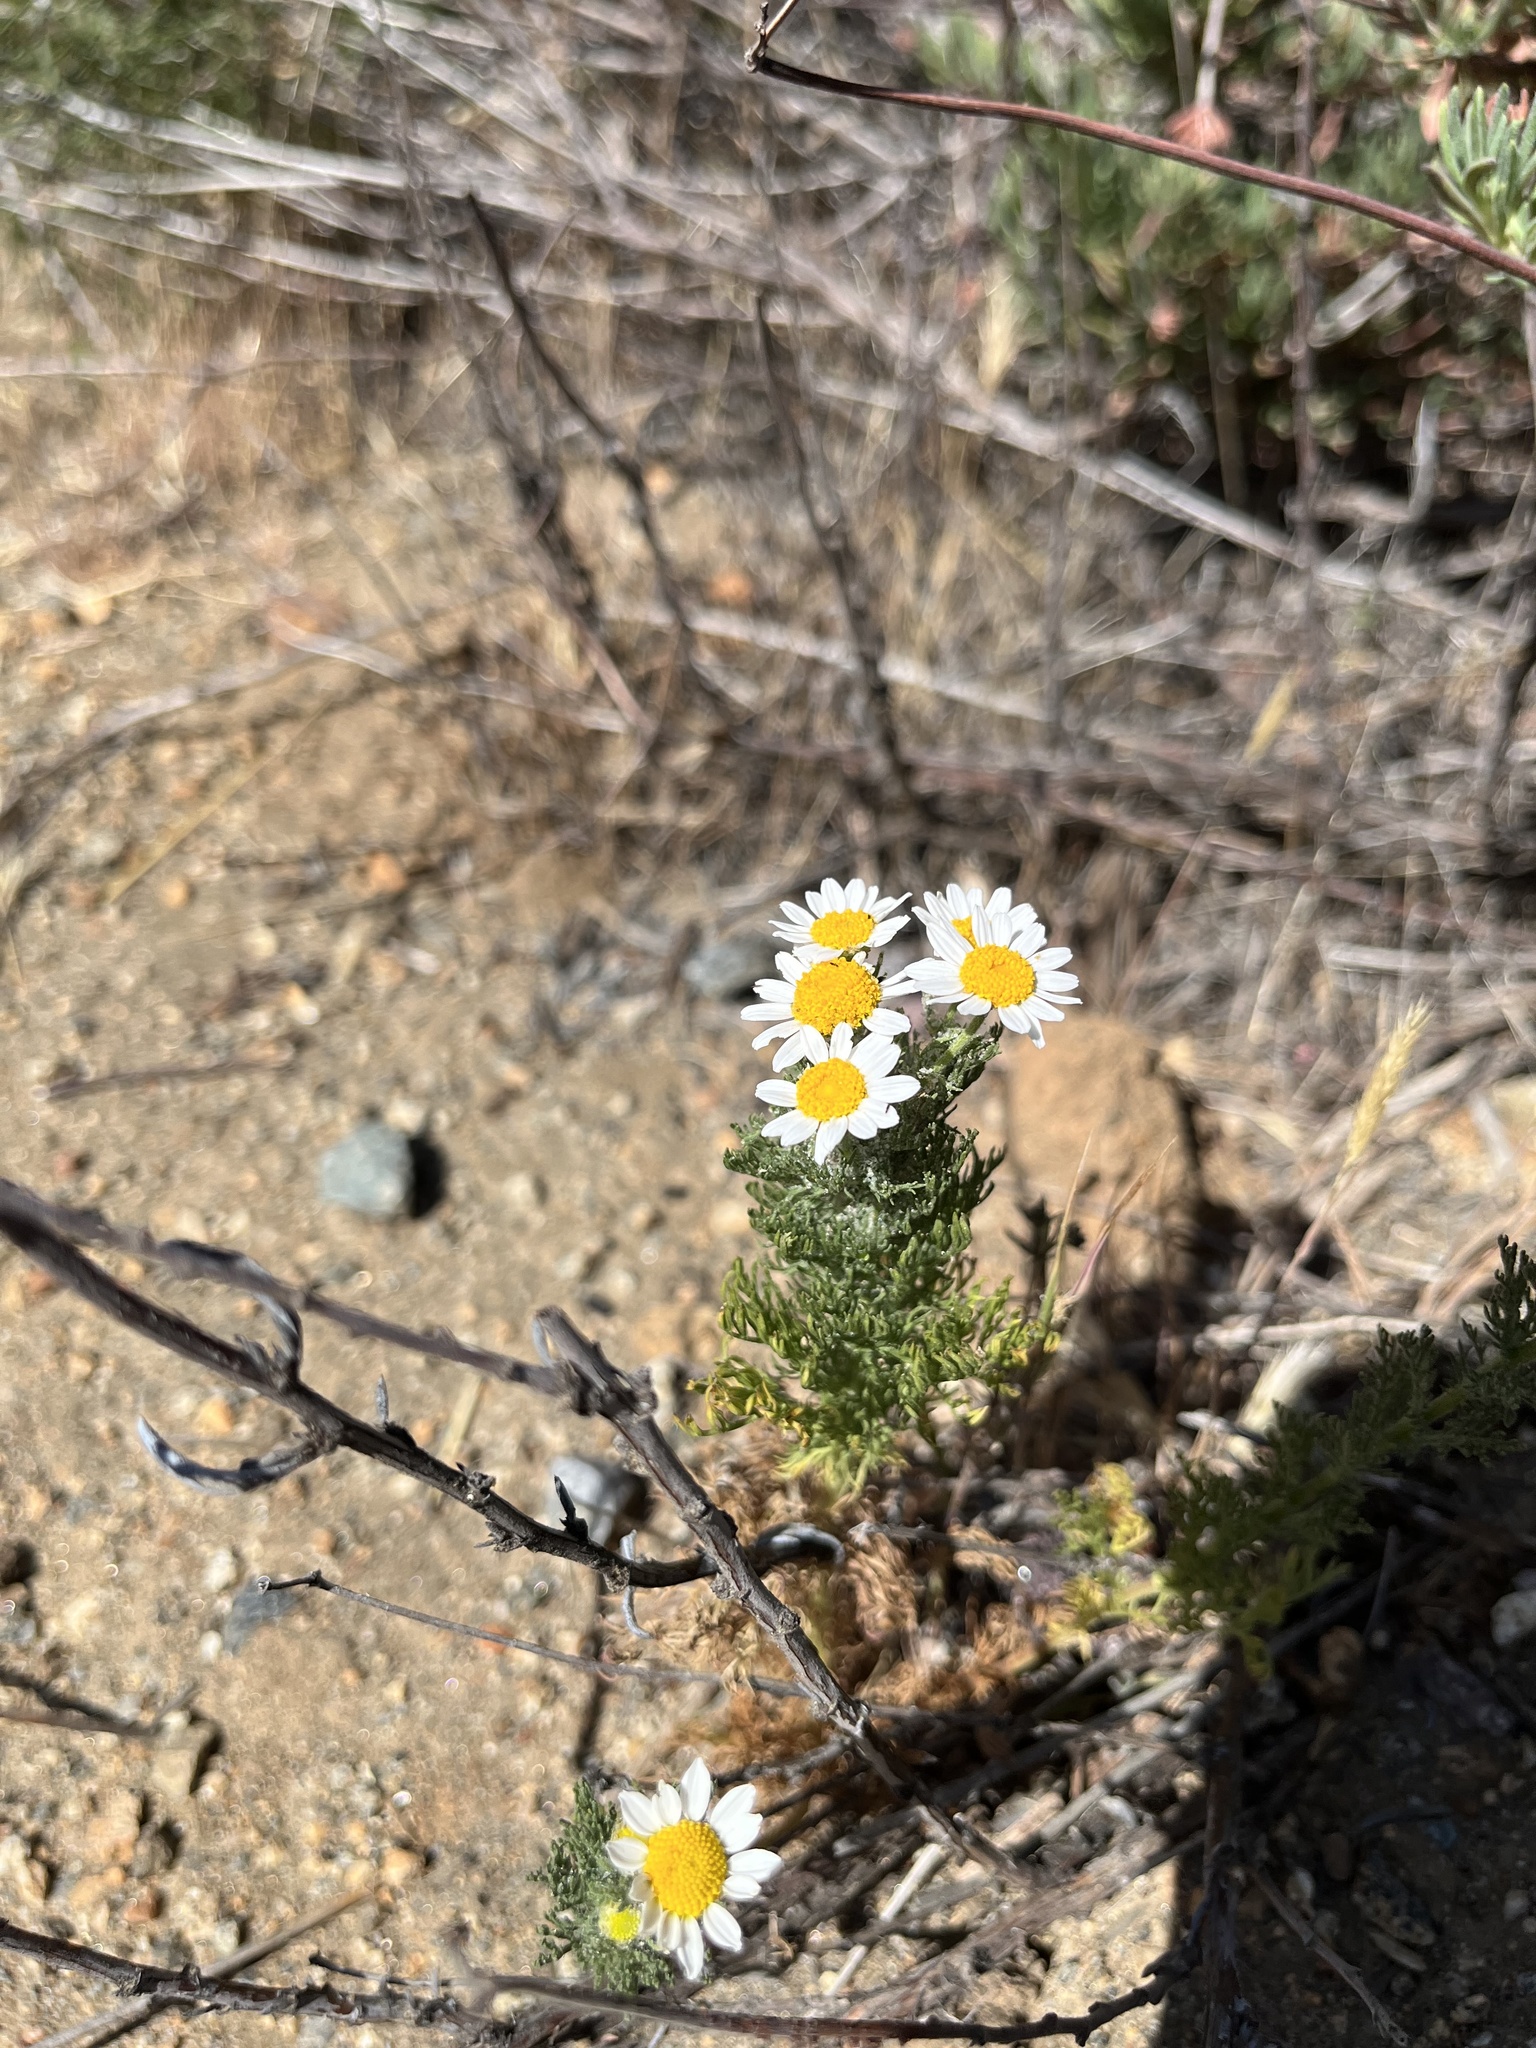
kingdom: Plantae
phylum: Tracheophyta
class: Magnoliopsida
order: Asterales
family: Asteraceae
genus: Anthemis
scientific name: Anthemis cotula
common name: Stinking chamomile
